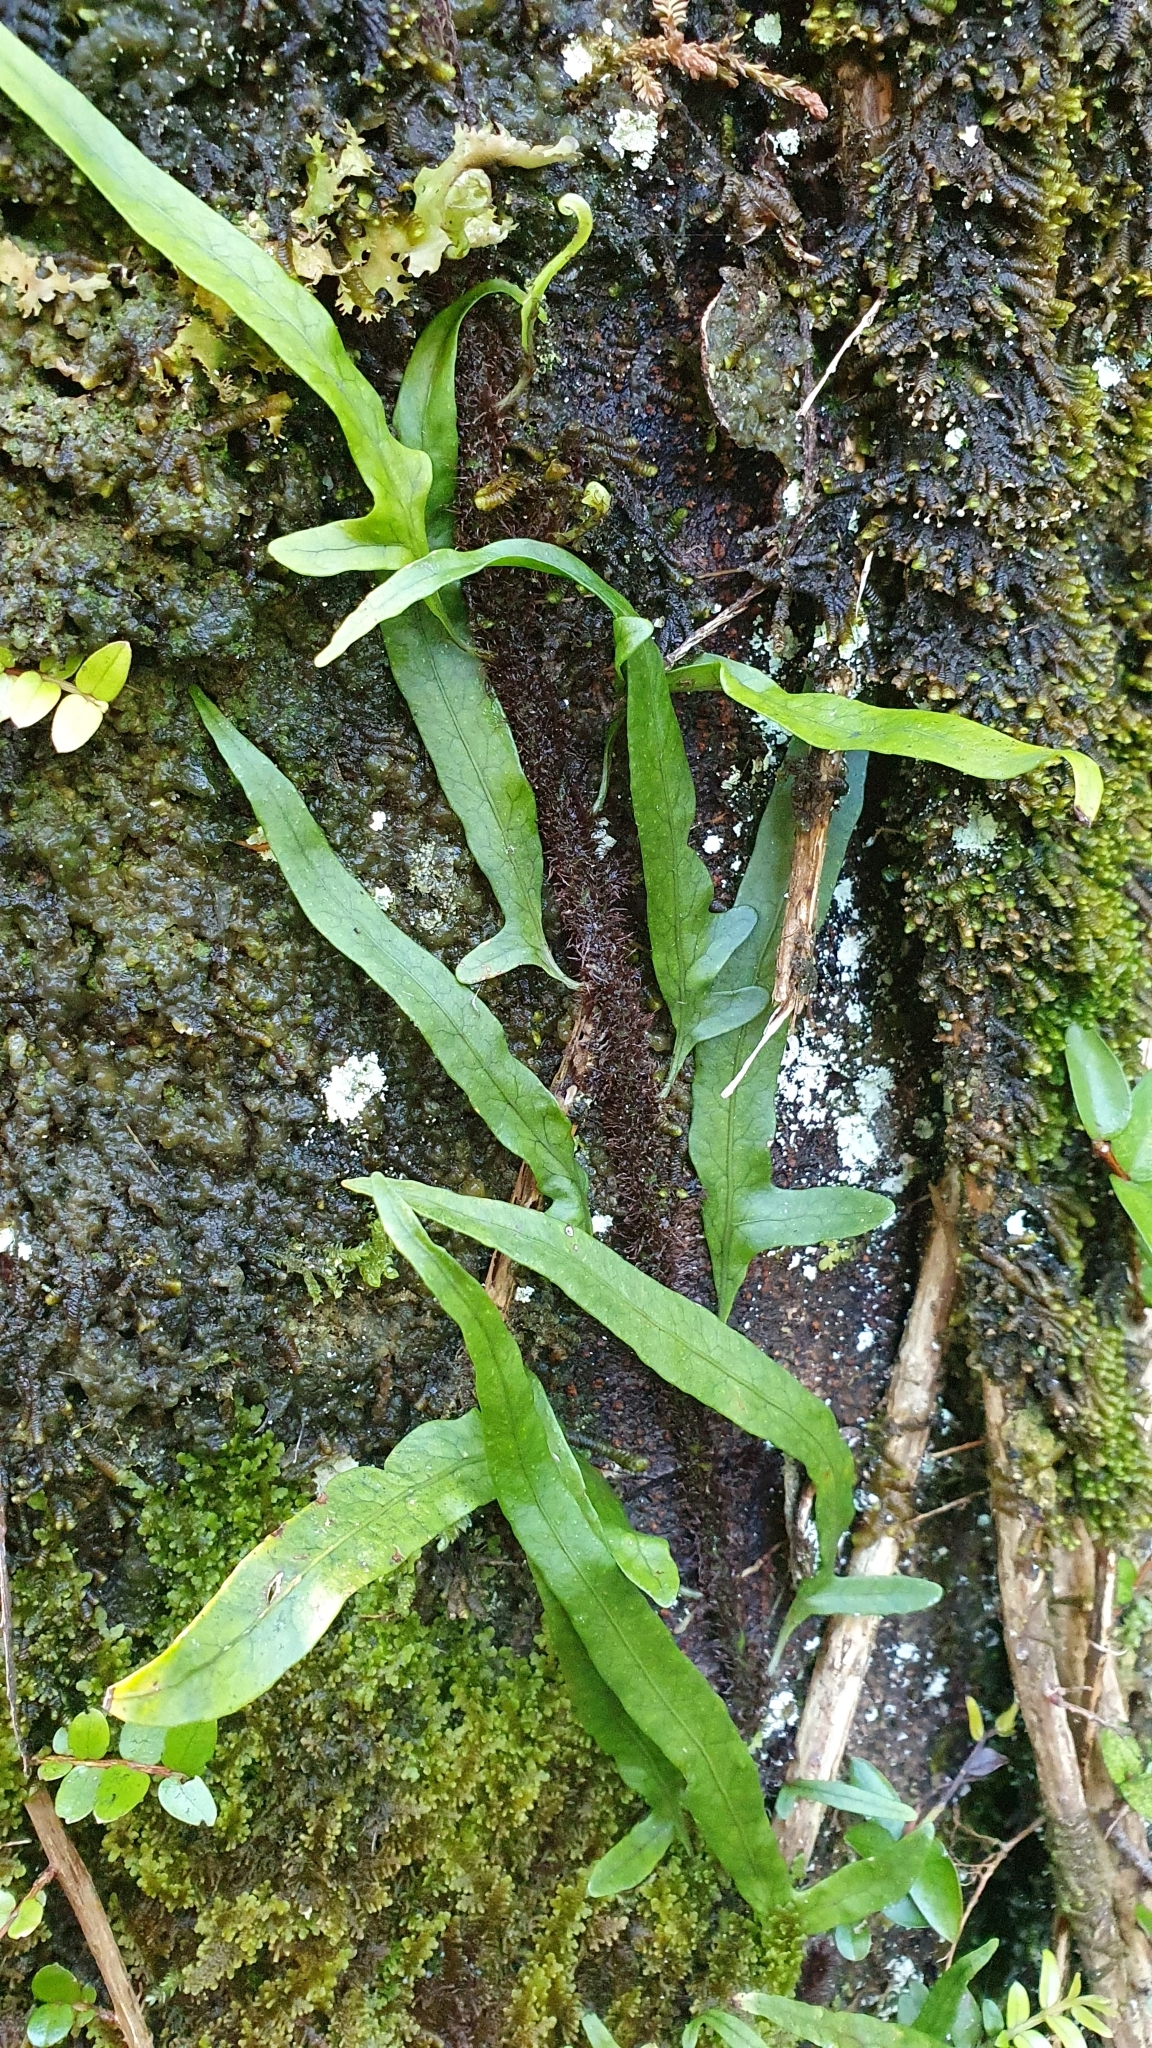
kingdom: Plantae
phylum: Tracheophyta
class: Polypodiopsida
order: Polypodiales
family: Polypodiaceae
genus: Lecanopteris
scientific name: Lecanopteris scandens
